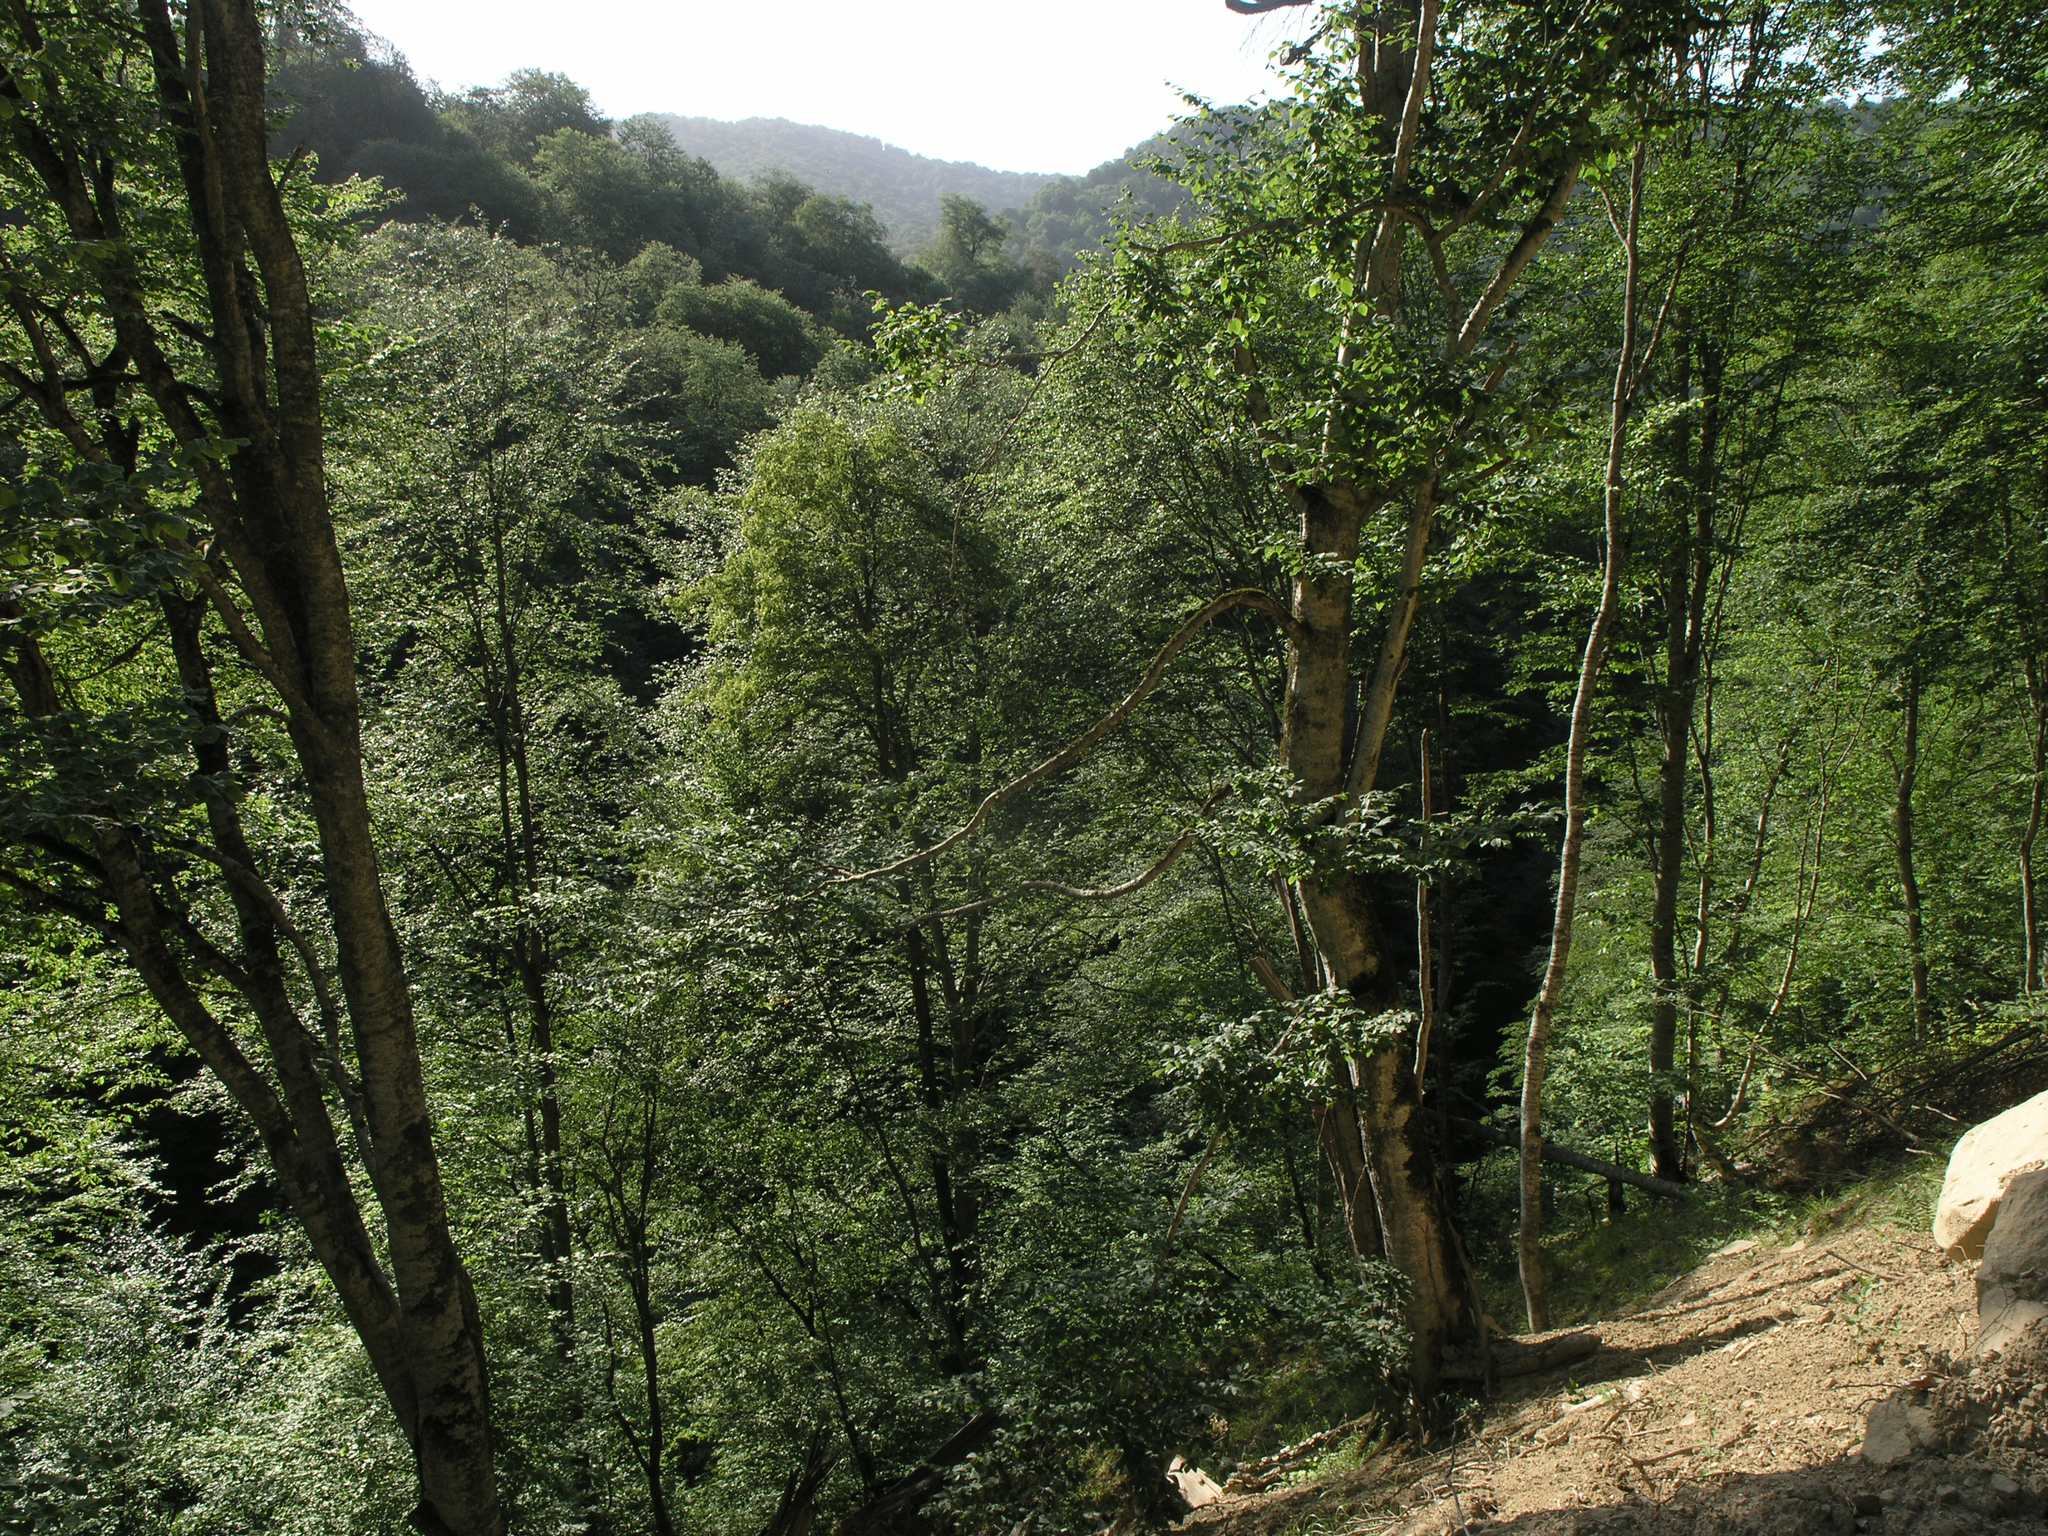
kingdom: Plantae
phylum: Tracheophyta
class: Magnoliopsida
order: Fagales
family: Fagaceae
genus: Fagus
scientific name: Fagus orientalis
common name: Oriental beech
